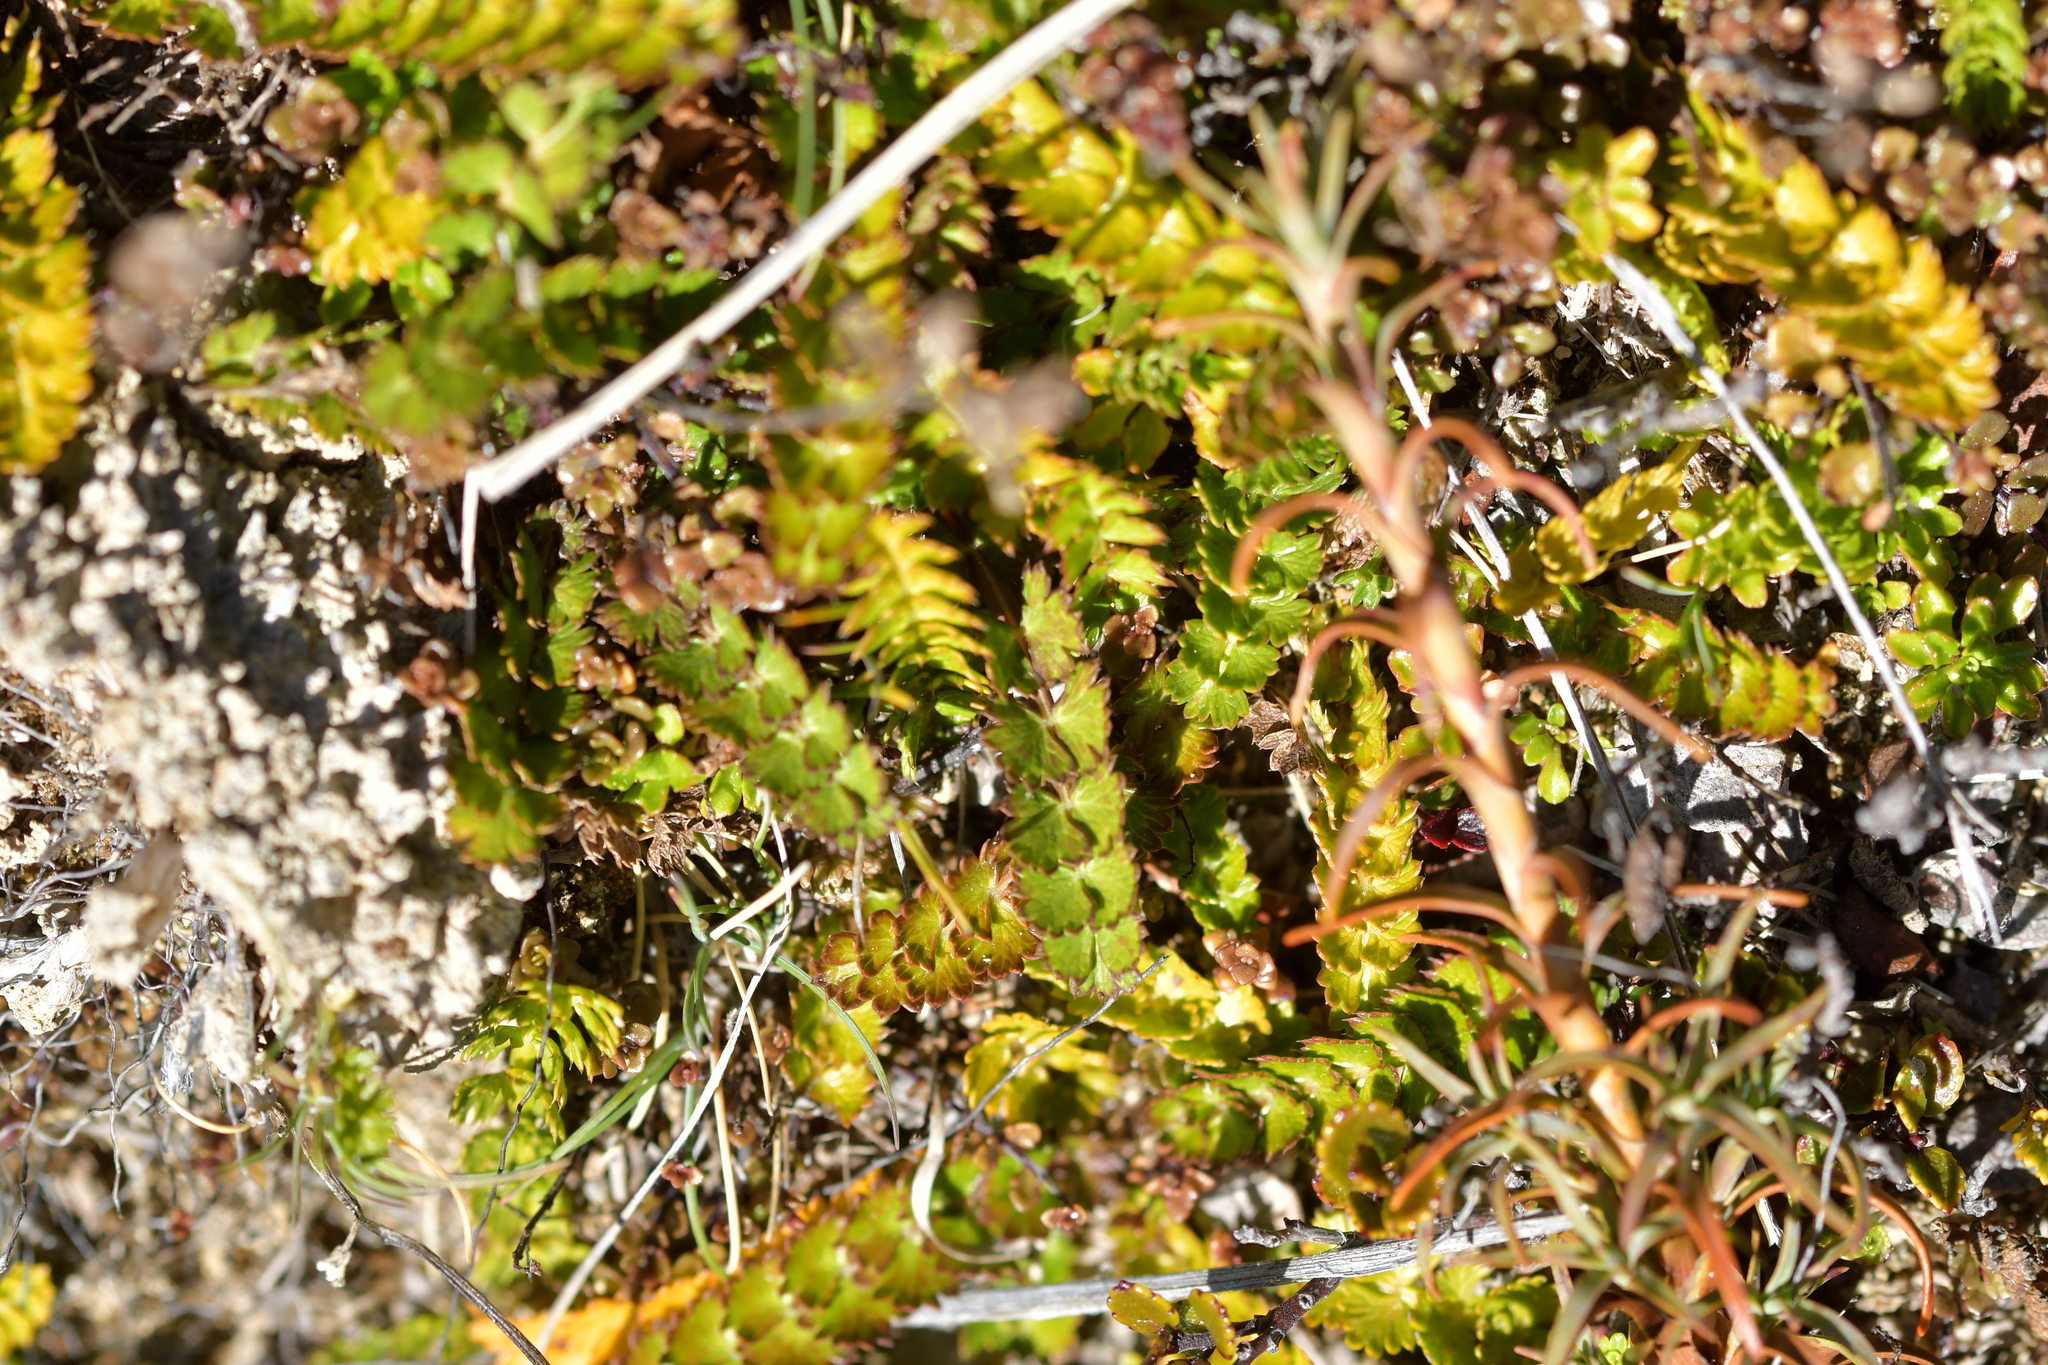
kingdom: Plantae
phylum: Tracheophyta
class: Magnoliopsida
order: Apiales
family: Apiaceae
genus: Anisotome
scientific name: Anisotome aromatica
